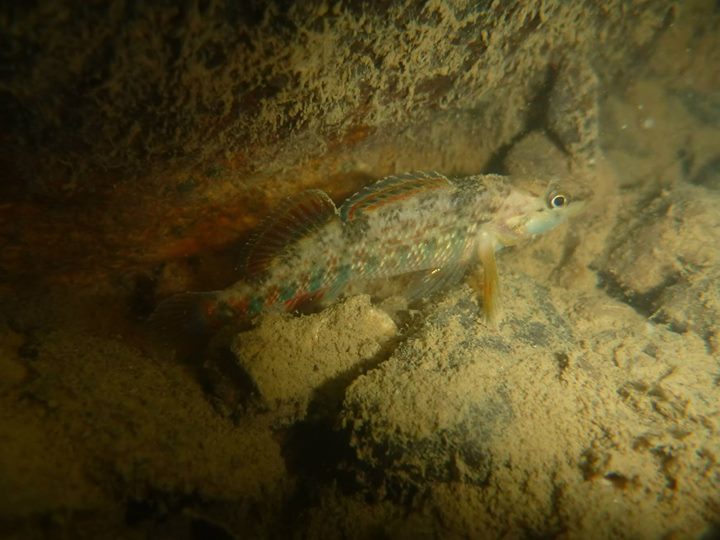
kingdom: Animalia
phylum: Chordata
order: Perciformes
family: Percidae
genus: Etheostoma
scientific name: Etheostoma caeruleum
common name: Rainbow darter
